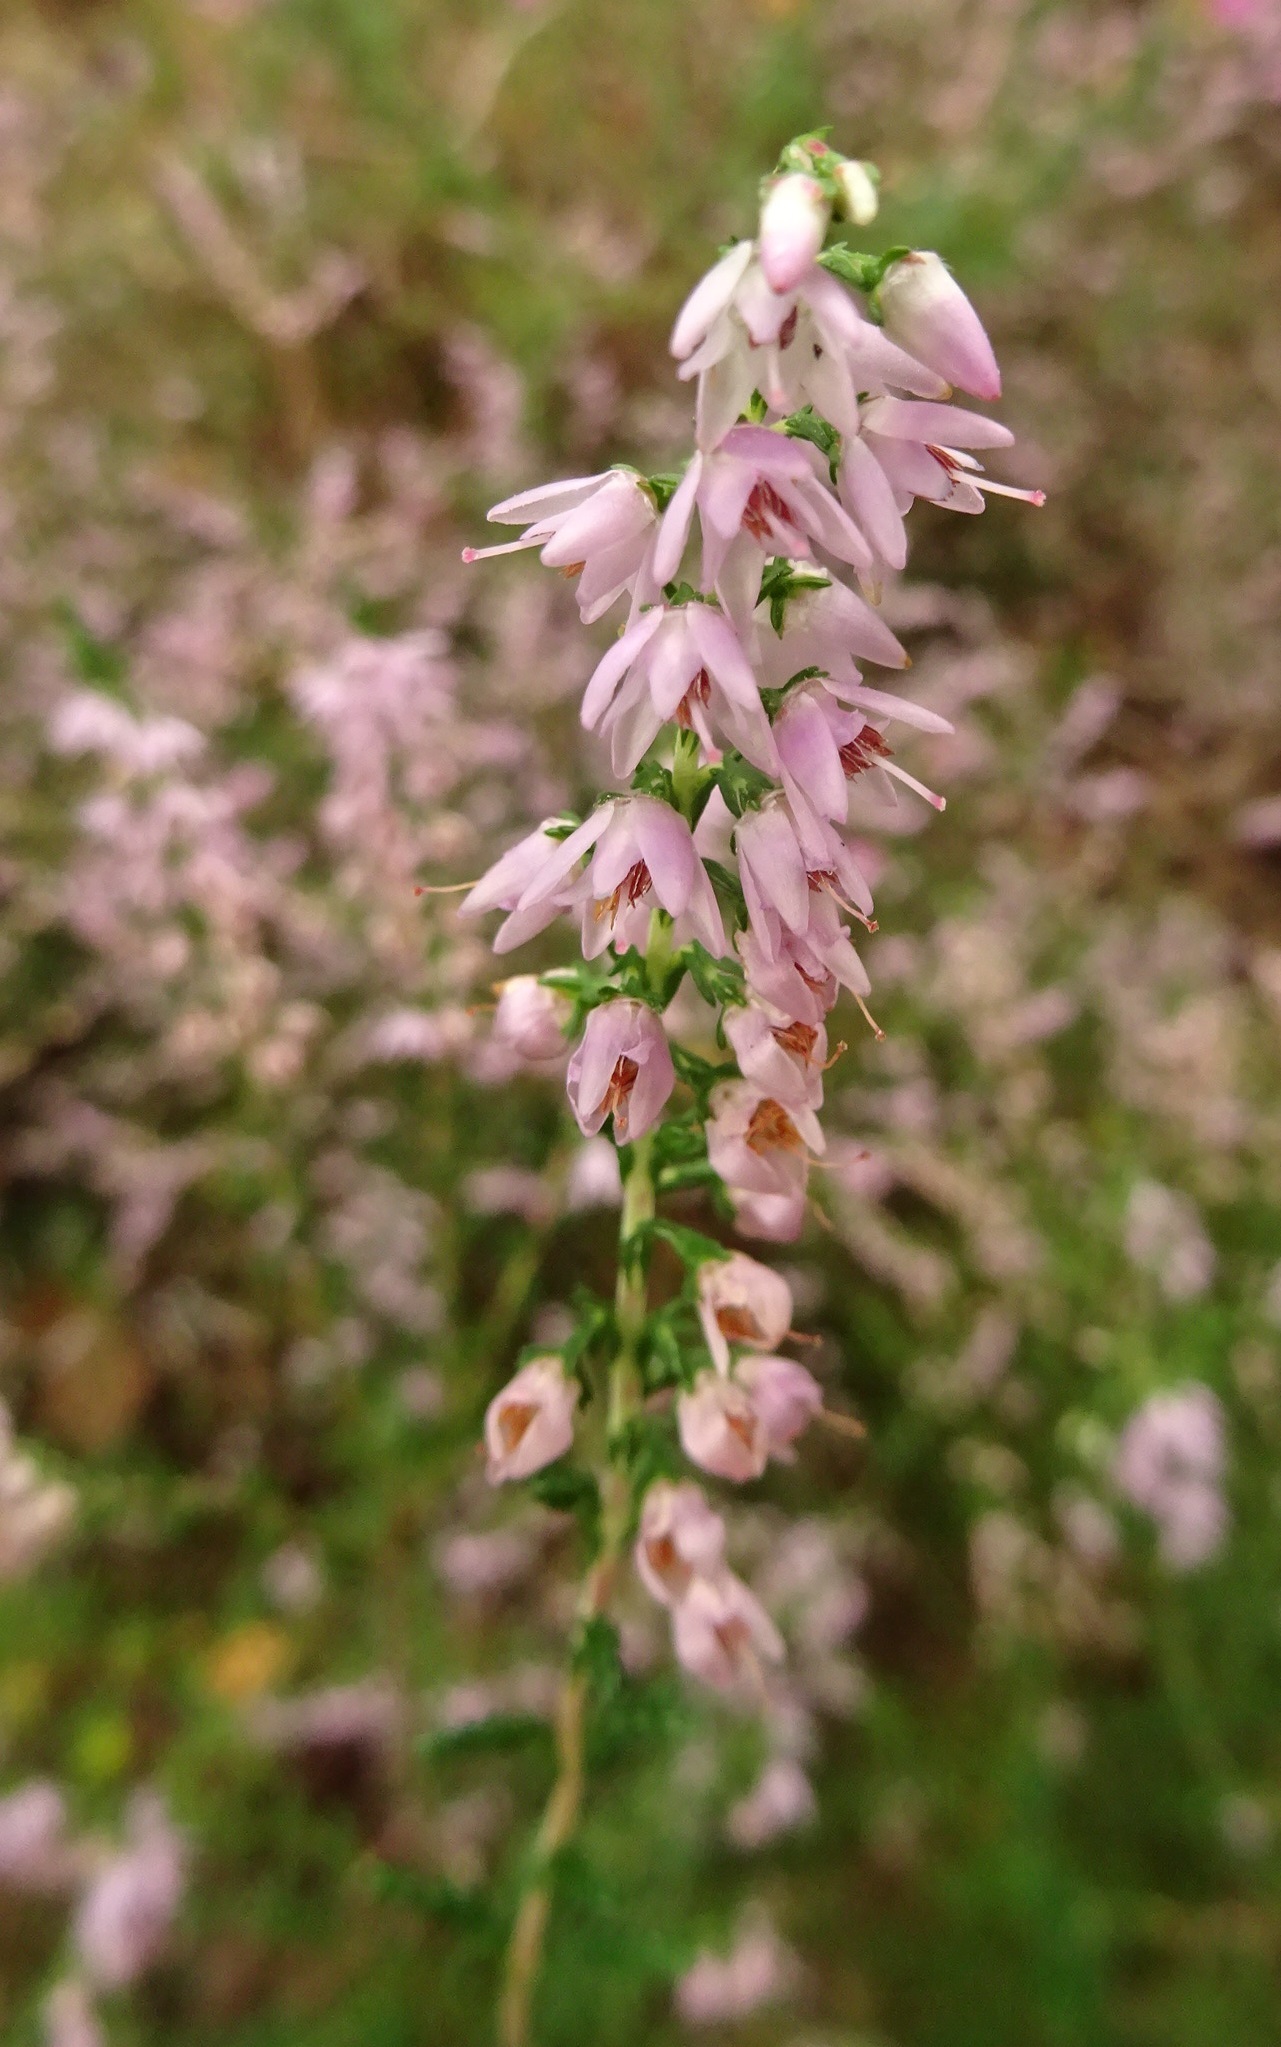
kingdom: Plantae
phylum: Tracheophyta
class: Magnoliopsida
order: Ericales
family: Ericaceae
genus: Calluna
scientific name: Calluna vulgaris
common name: Heather
